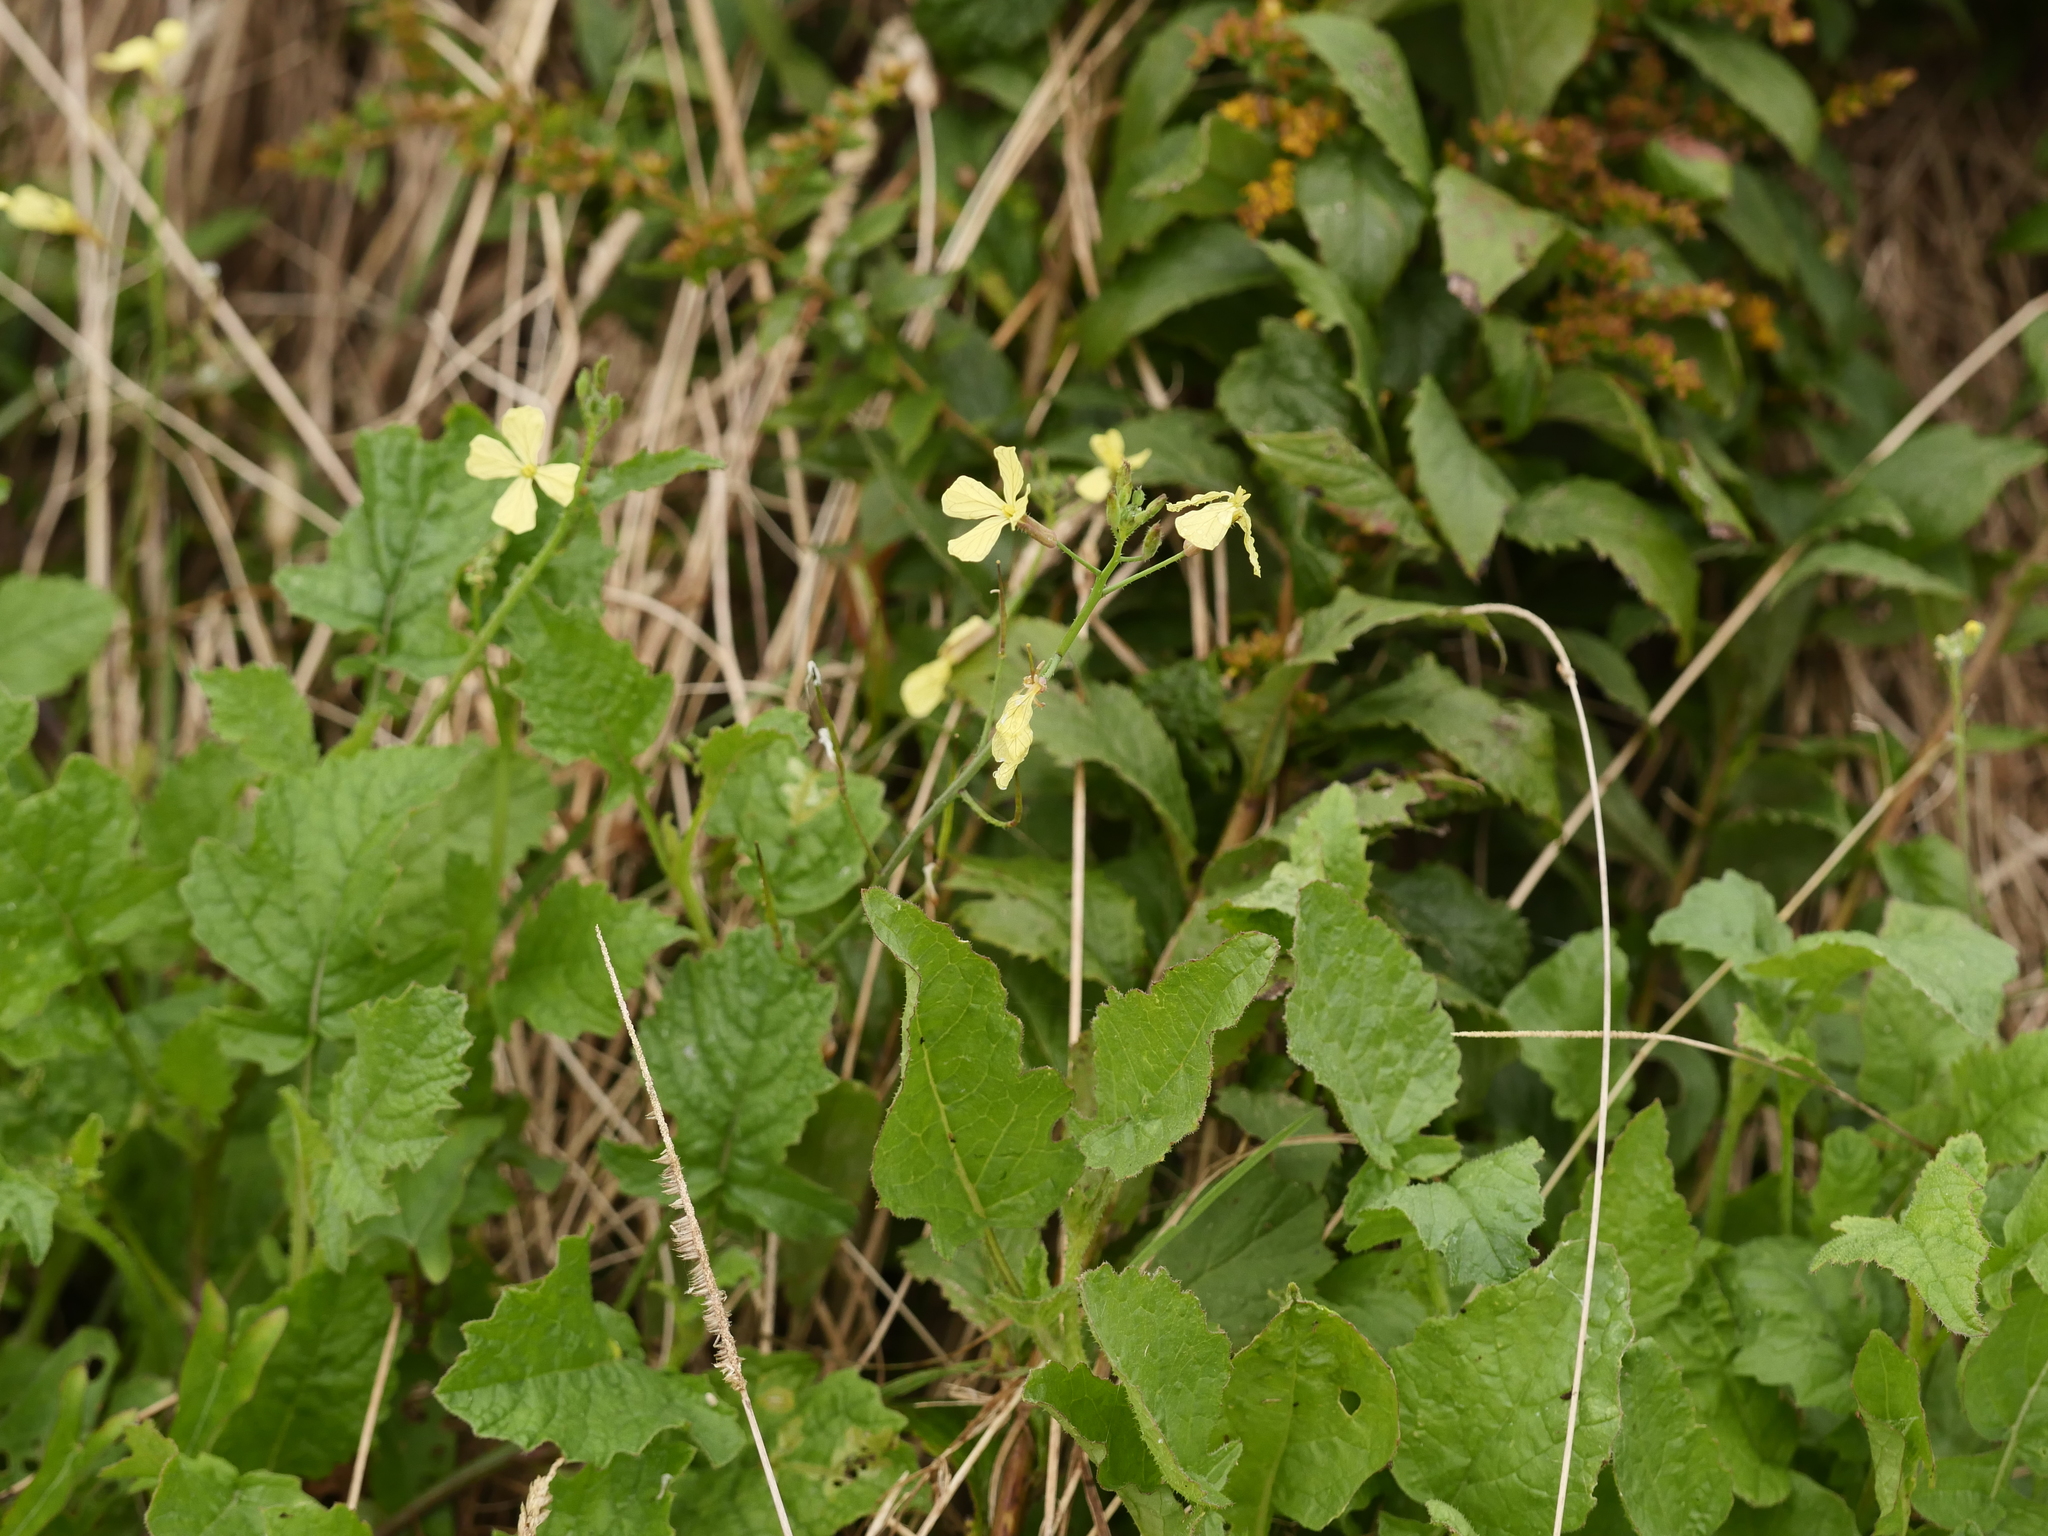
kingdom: Plantae
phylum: Tracheophyta
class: Magnoliopsida
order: Brassicales
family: Brassicaceae
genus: Raphanus
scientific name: Raphanus raphanistrum
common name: Wild radish
